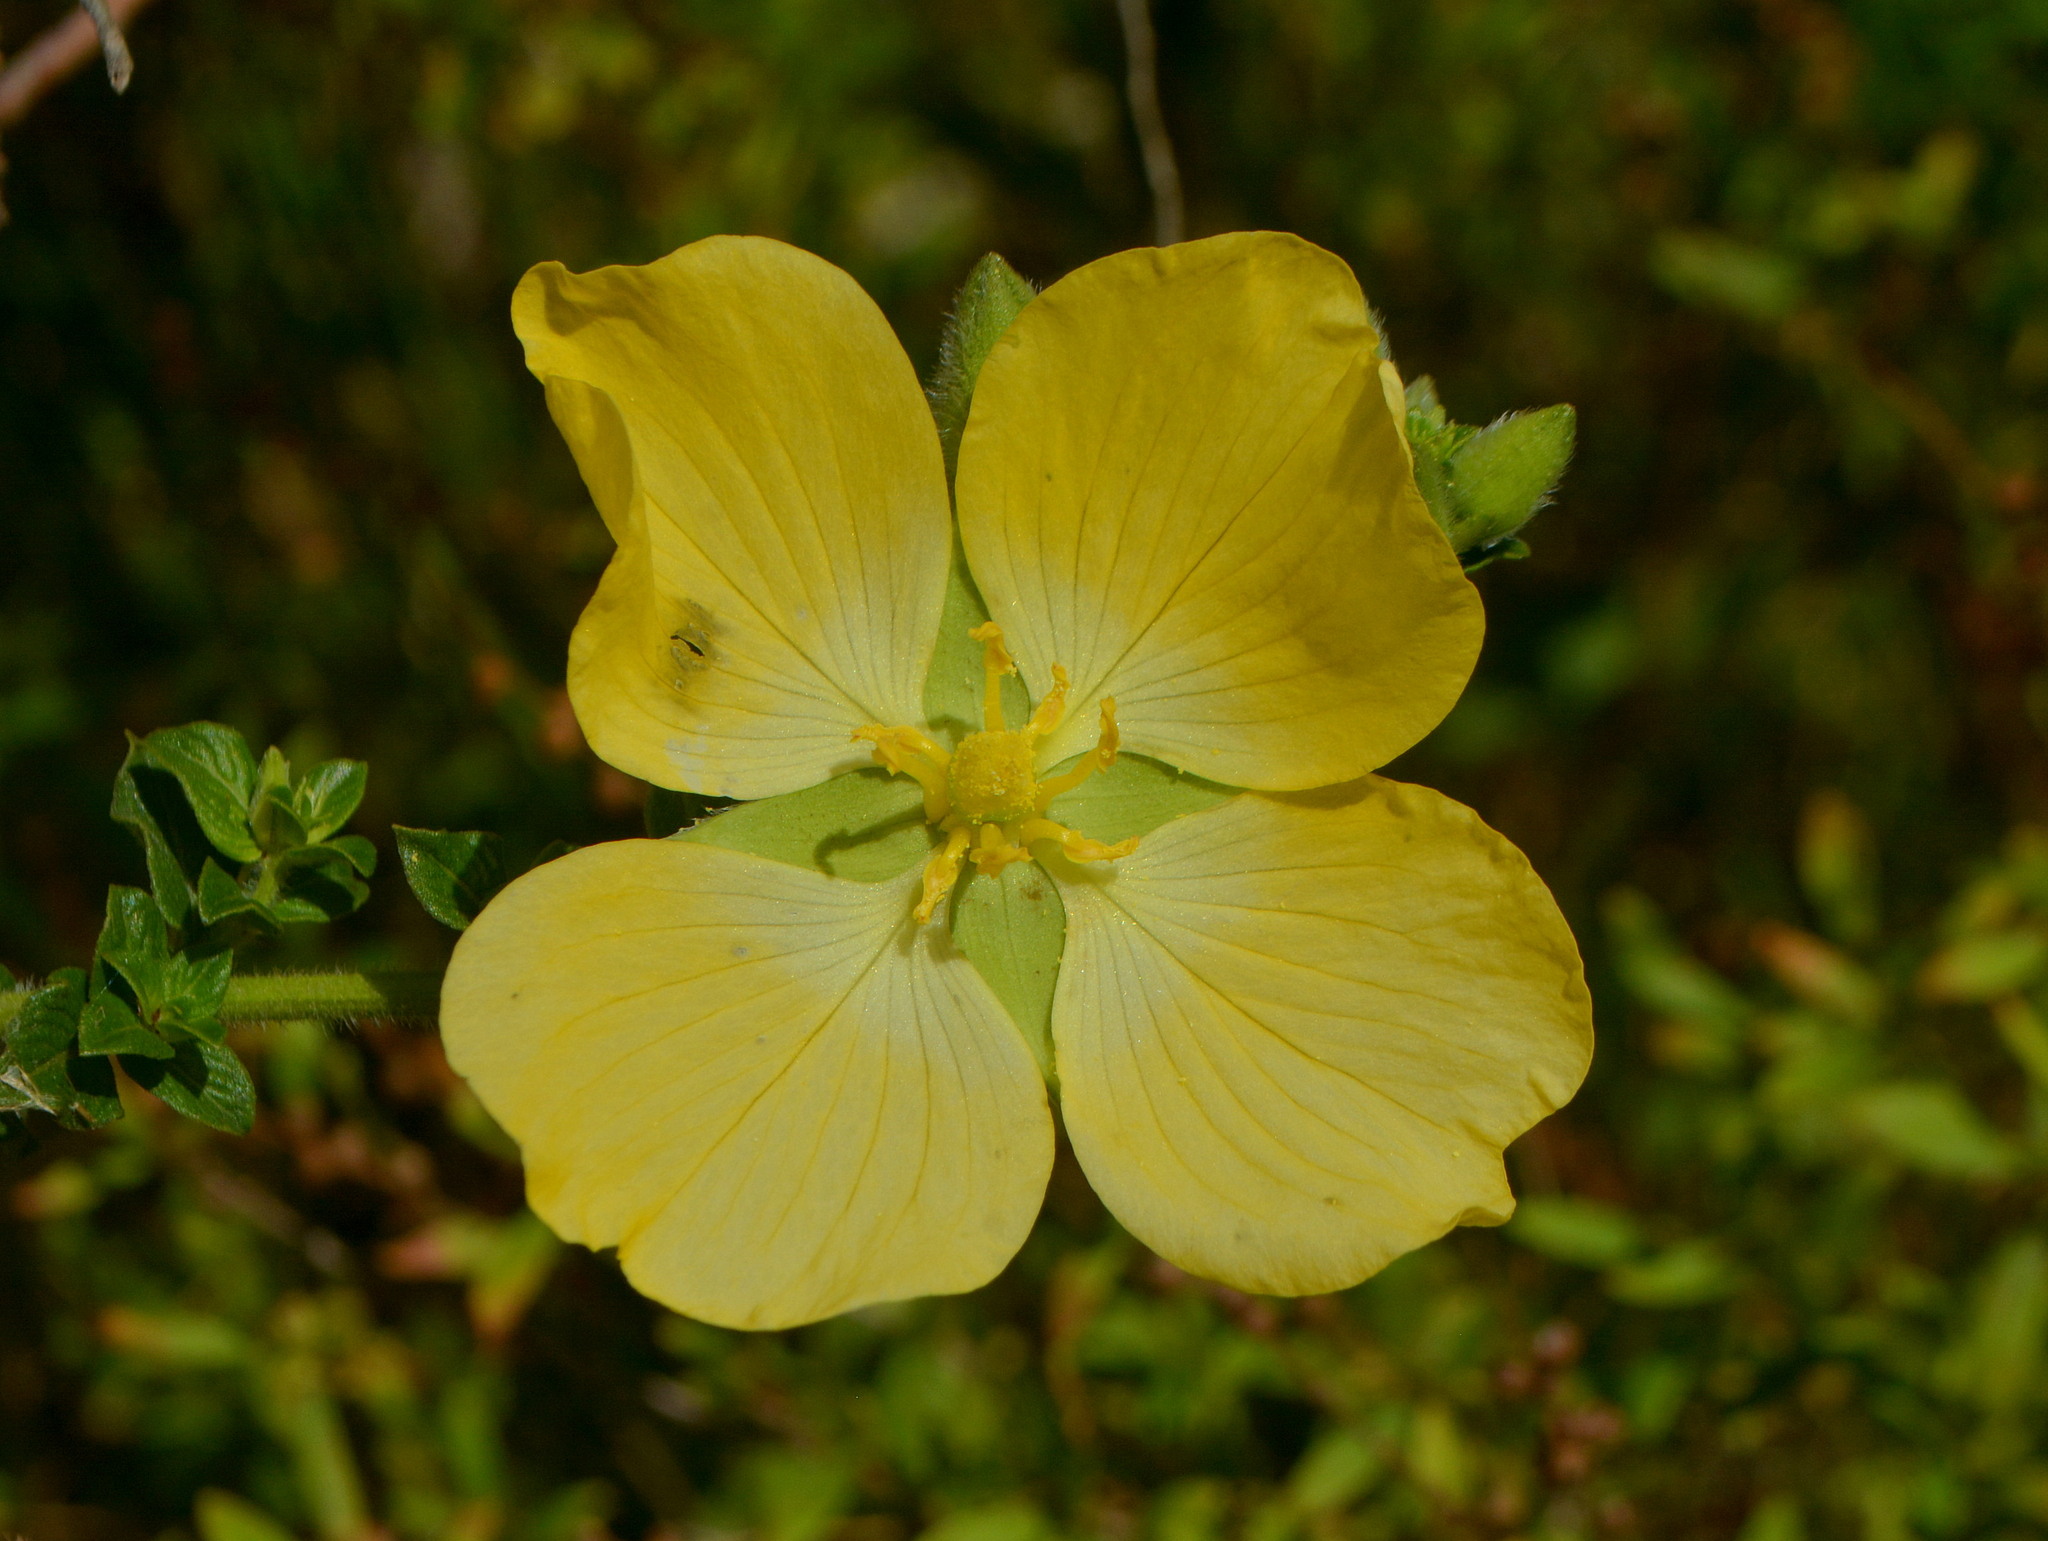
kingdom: Plantae
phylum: Tracheophyta
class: Magnoliopsida
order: Myrtales
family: Onagraceae
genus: Ludwigia
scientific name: Ludwigia multinervia
